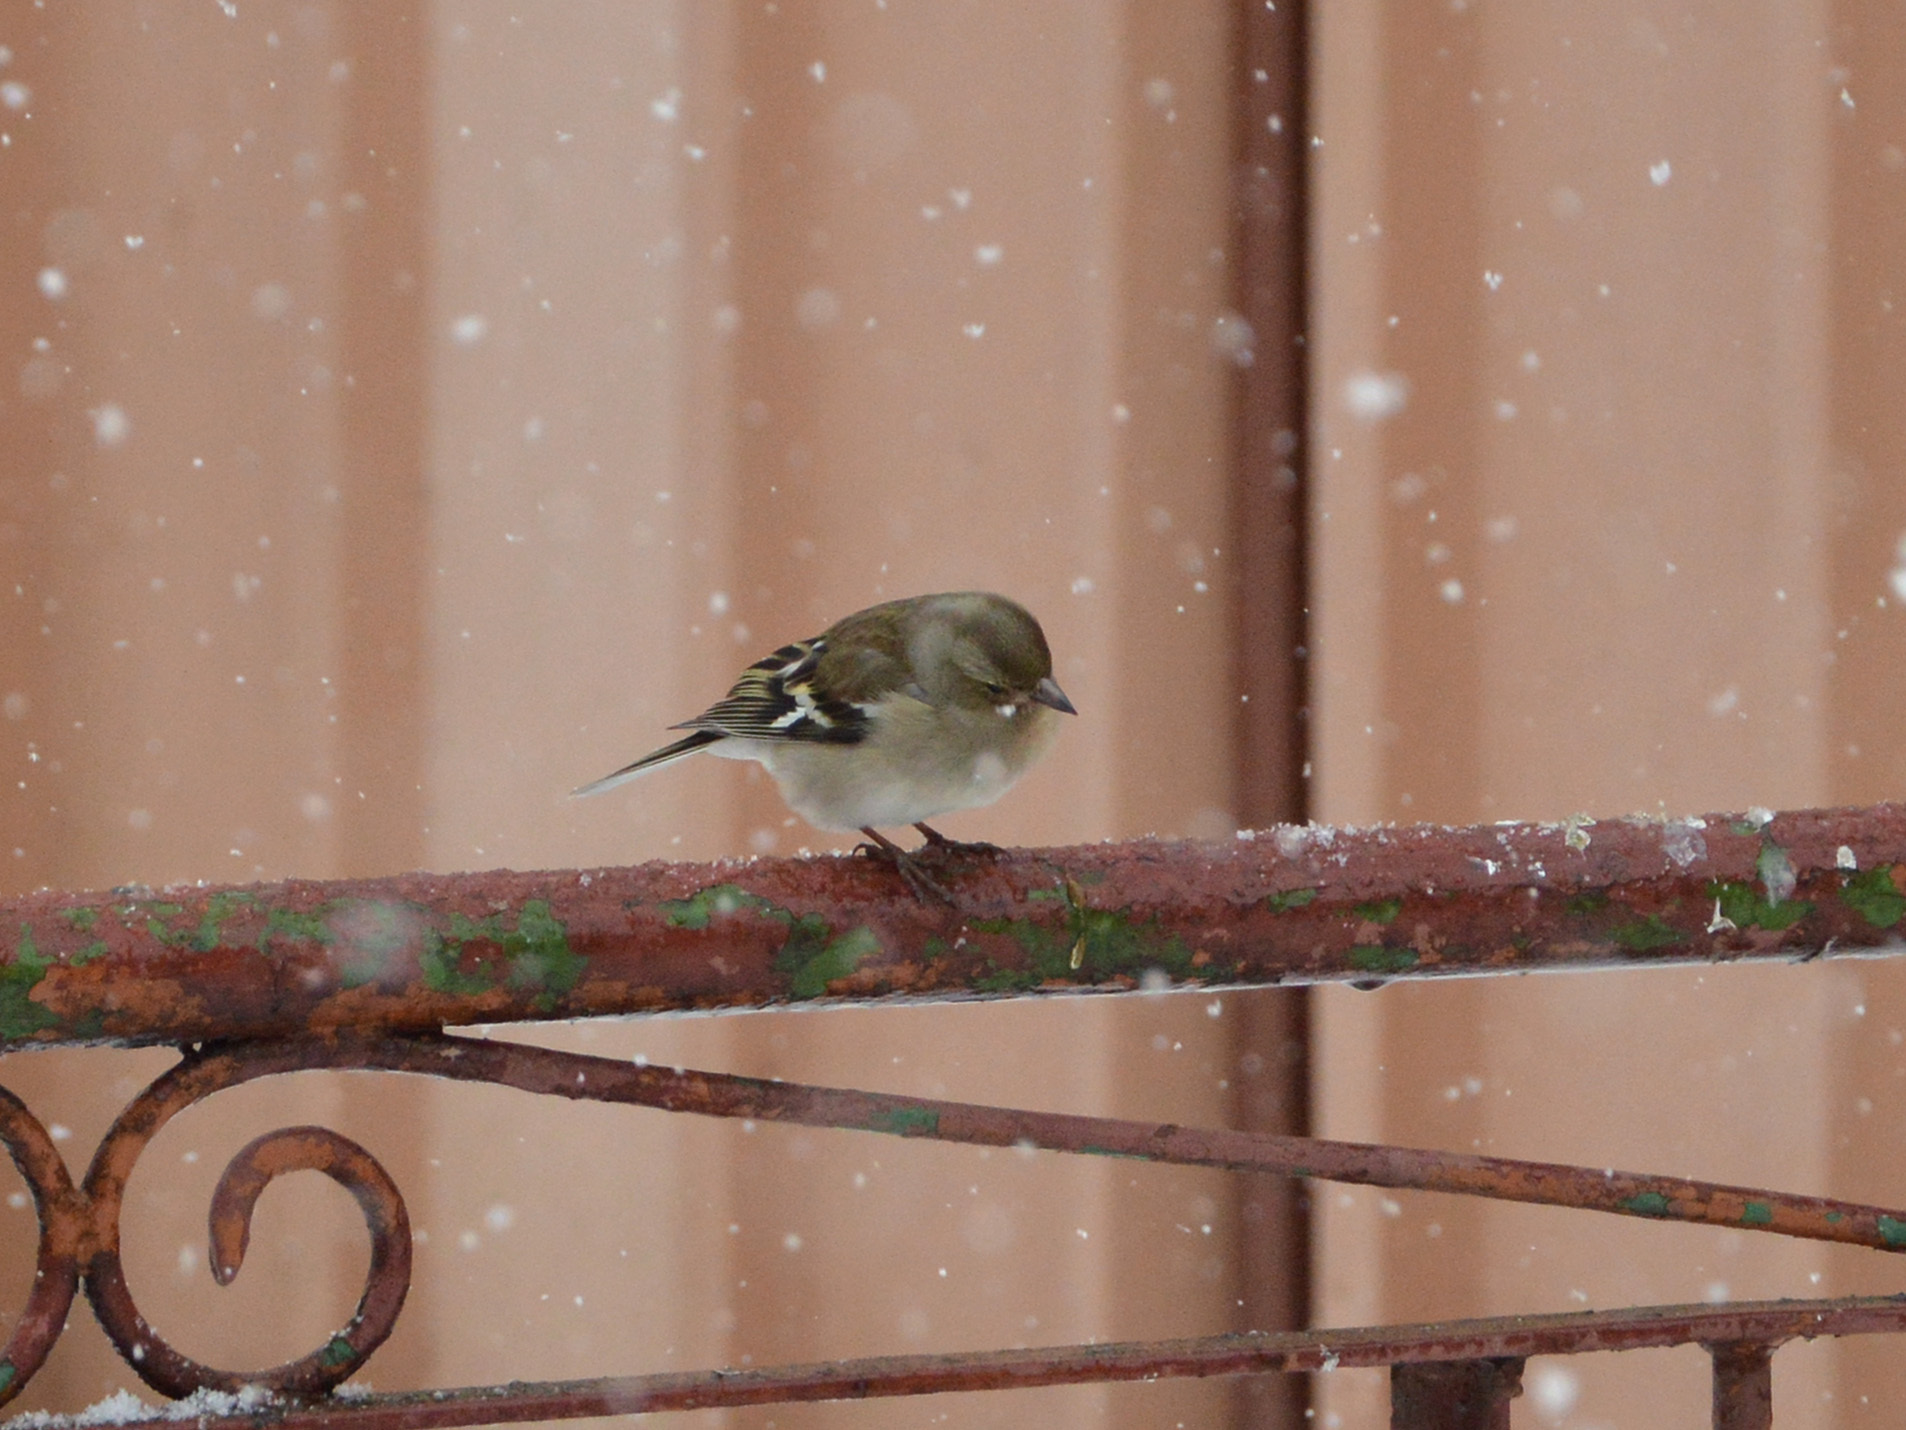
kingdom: Animalia
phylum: Chordata
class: Aves
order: Passeriformes
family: Fringillidae
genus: Fringilla
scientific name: Fringilla coelebs
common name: Common chaffinch
